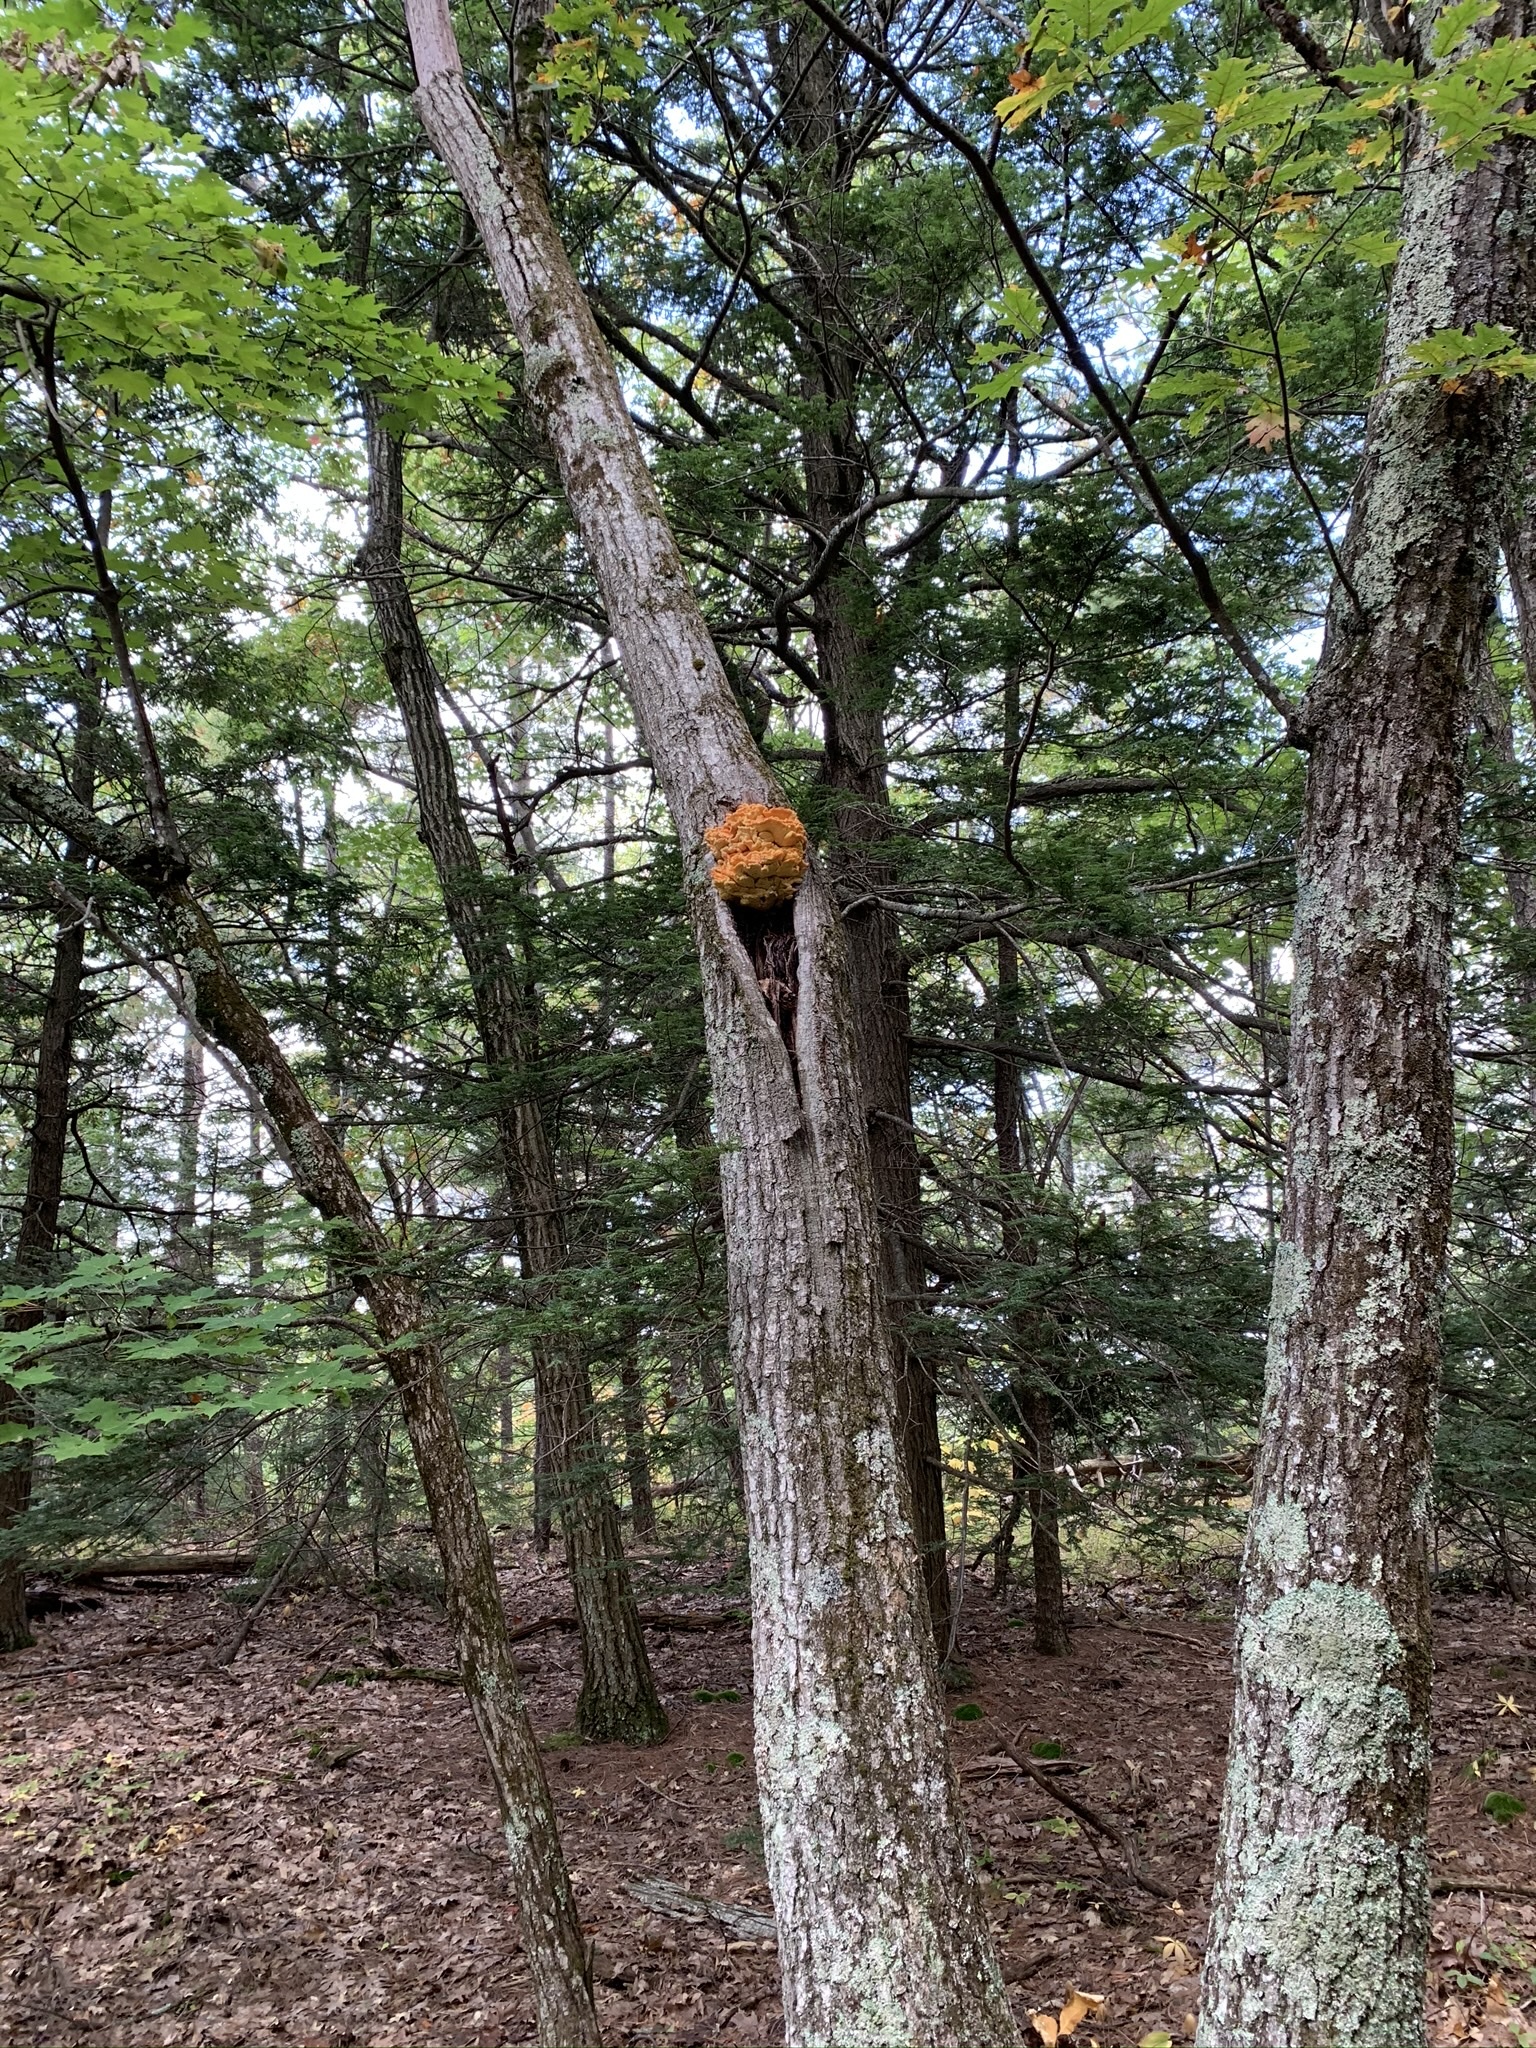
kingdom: Fungi
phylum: Basidiomycota
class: Agaricomycetes
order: Polyporales
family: Laetiporaceae
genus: Laetiporus
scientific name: Laetiporus sulphureus
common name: Chicken of the woods
